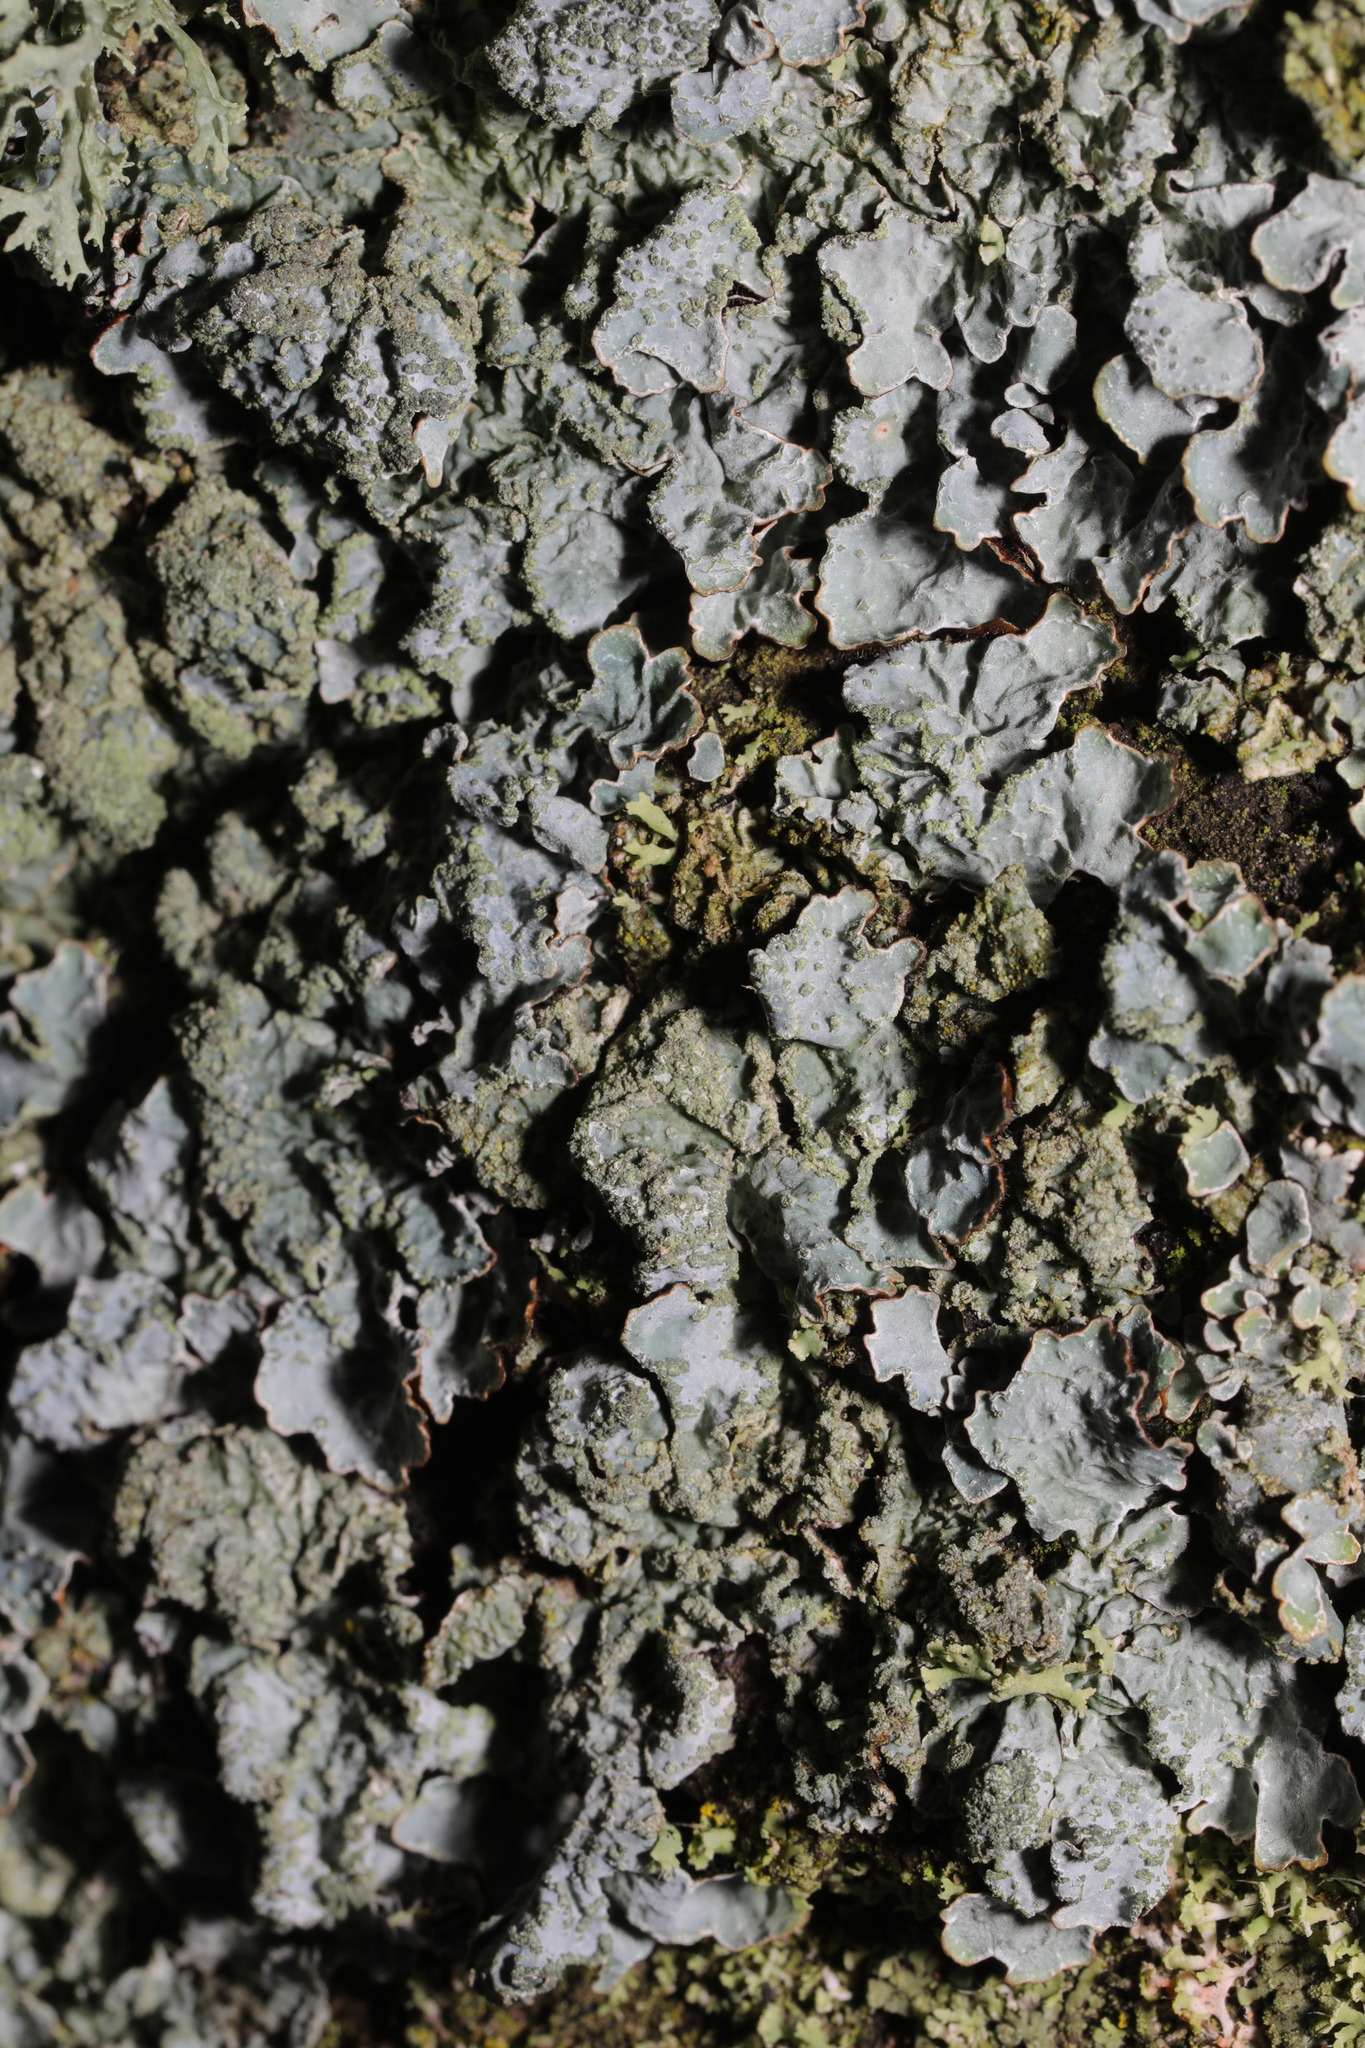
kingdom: Fungi
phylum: Ascomycota
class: Lecanoromycetes
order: Lecanorales
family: Parmeliaceae
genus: Parmelia
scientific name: Parmelia sulcata
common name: Netted shield lichen
